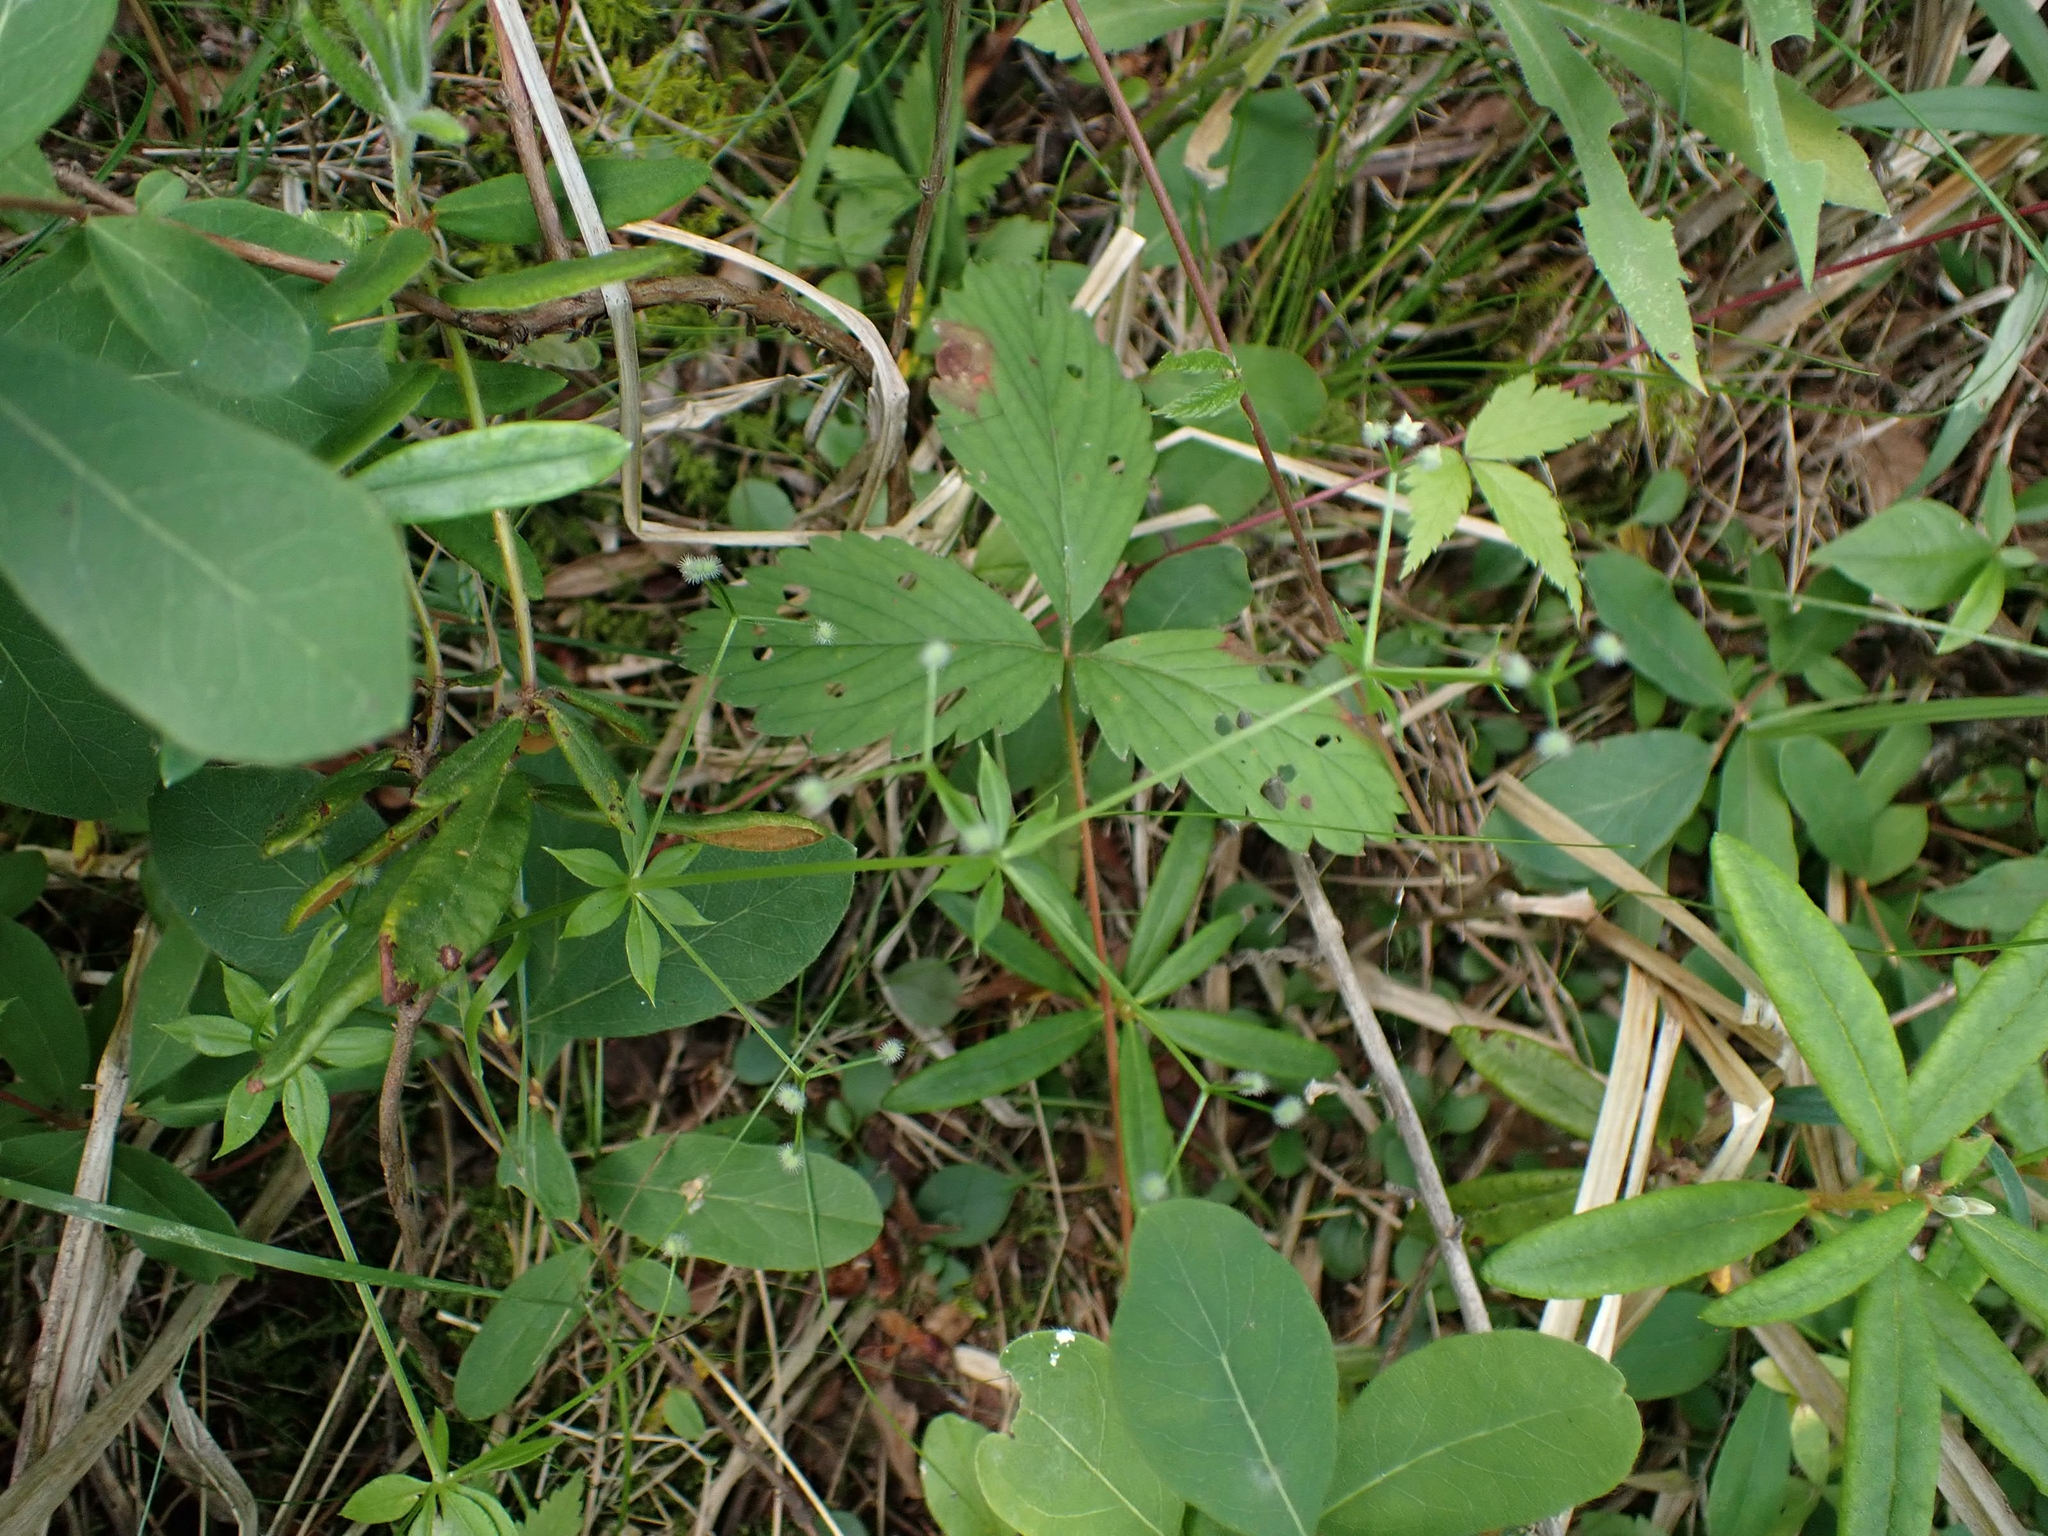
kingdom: Plantae
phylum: Tracheophyta
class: Magnoliopsida
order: Gentianales
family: Rubiaceae
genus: Galium
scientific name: Galium triflorum
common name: Fragrant bedstraw
